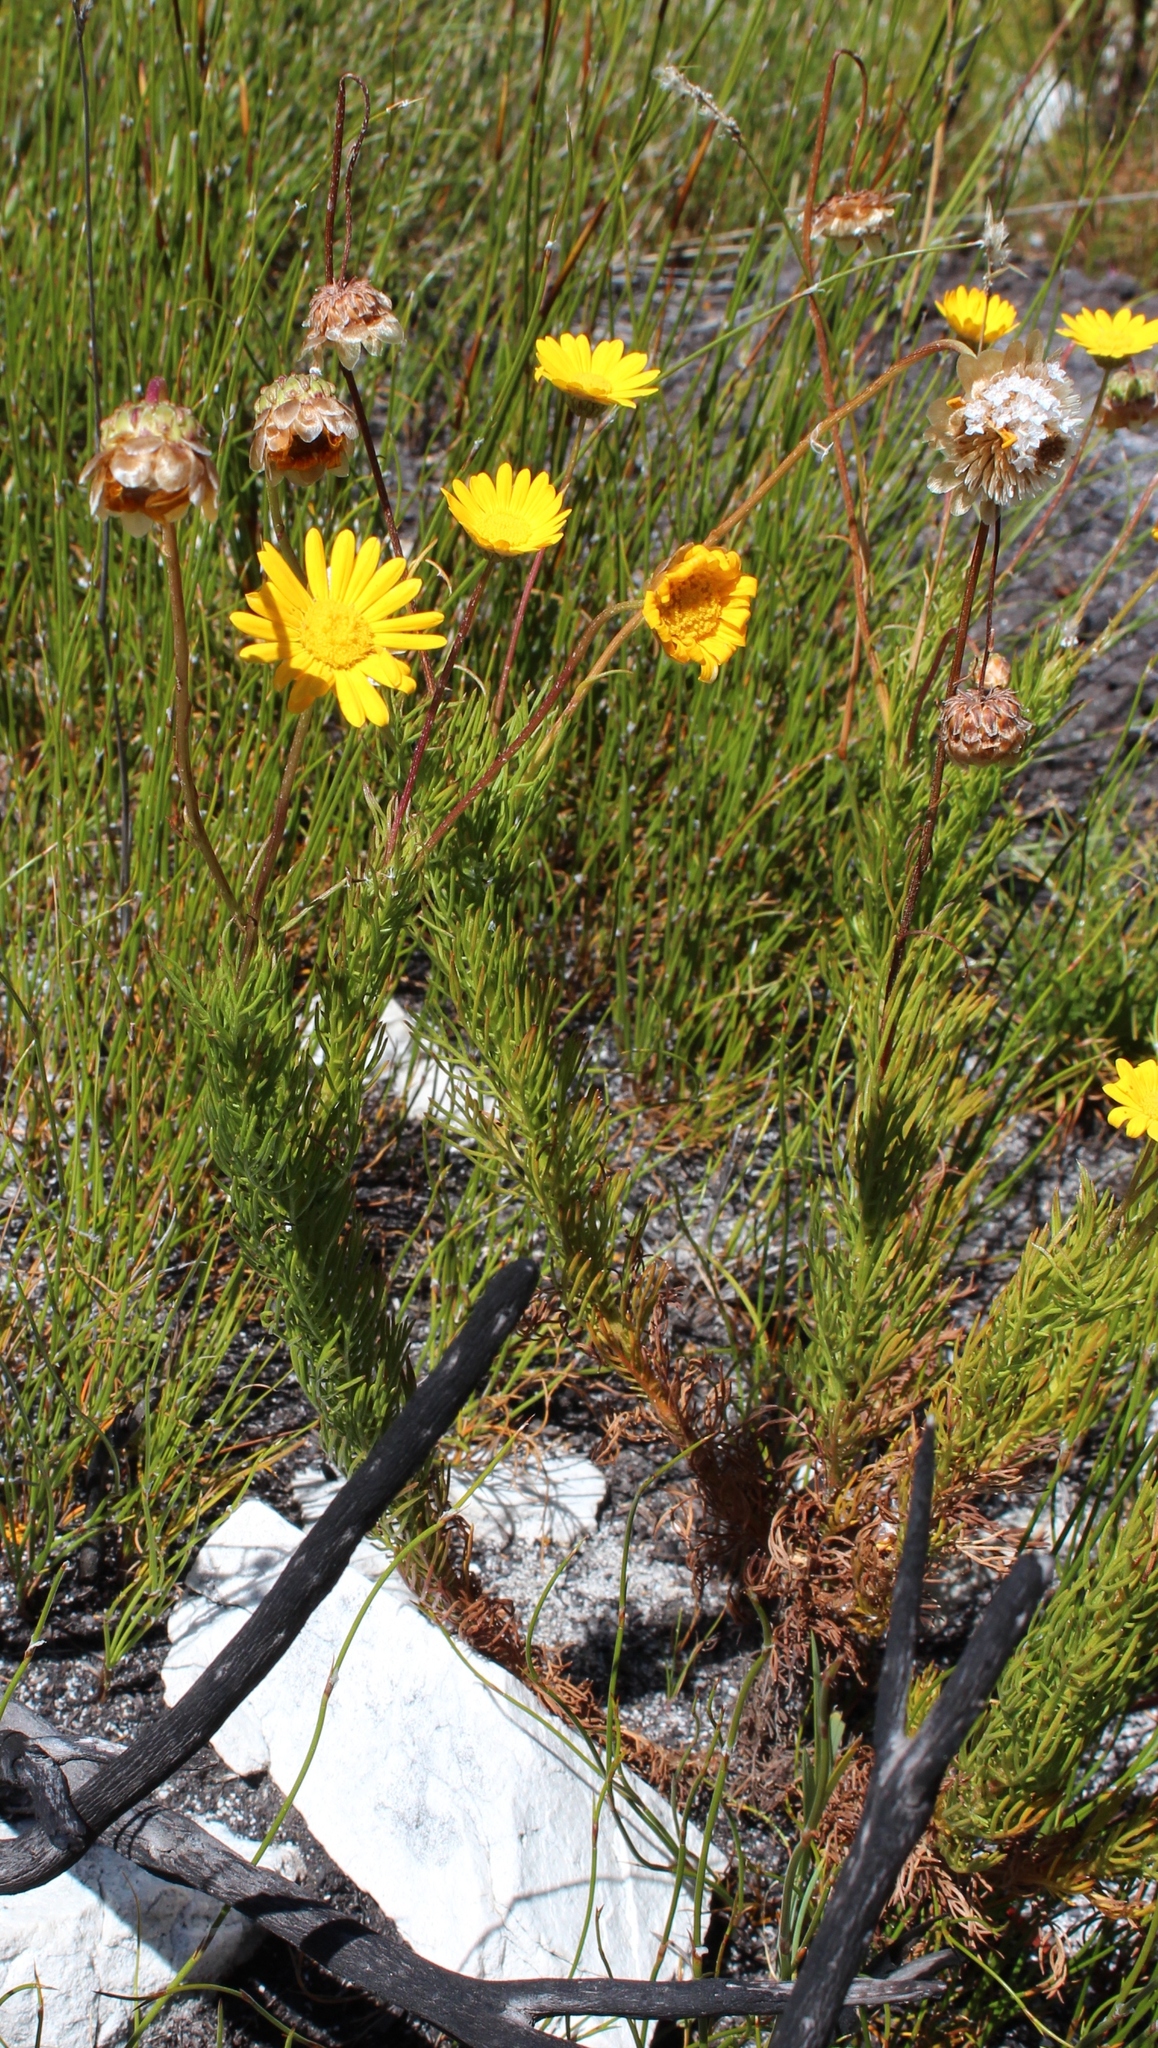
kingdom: Plantae
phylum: Tracheophyta
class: Magnoliopsida
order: Asterales
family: Asteraceae
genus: Ursinia
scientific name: Ursinia paleacea
